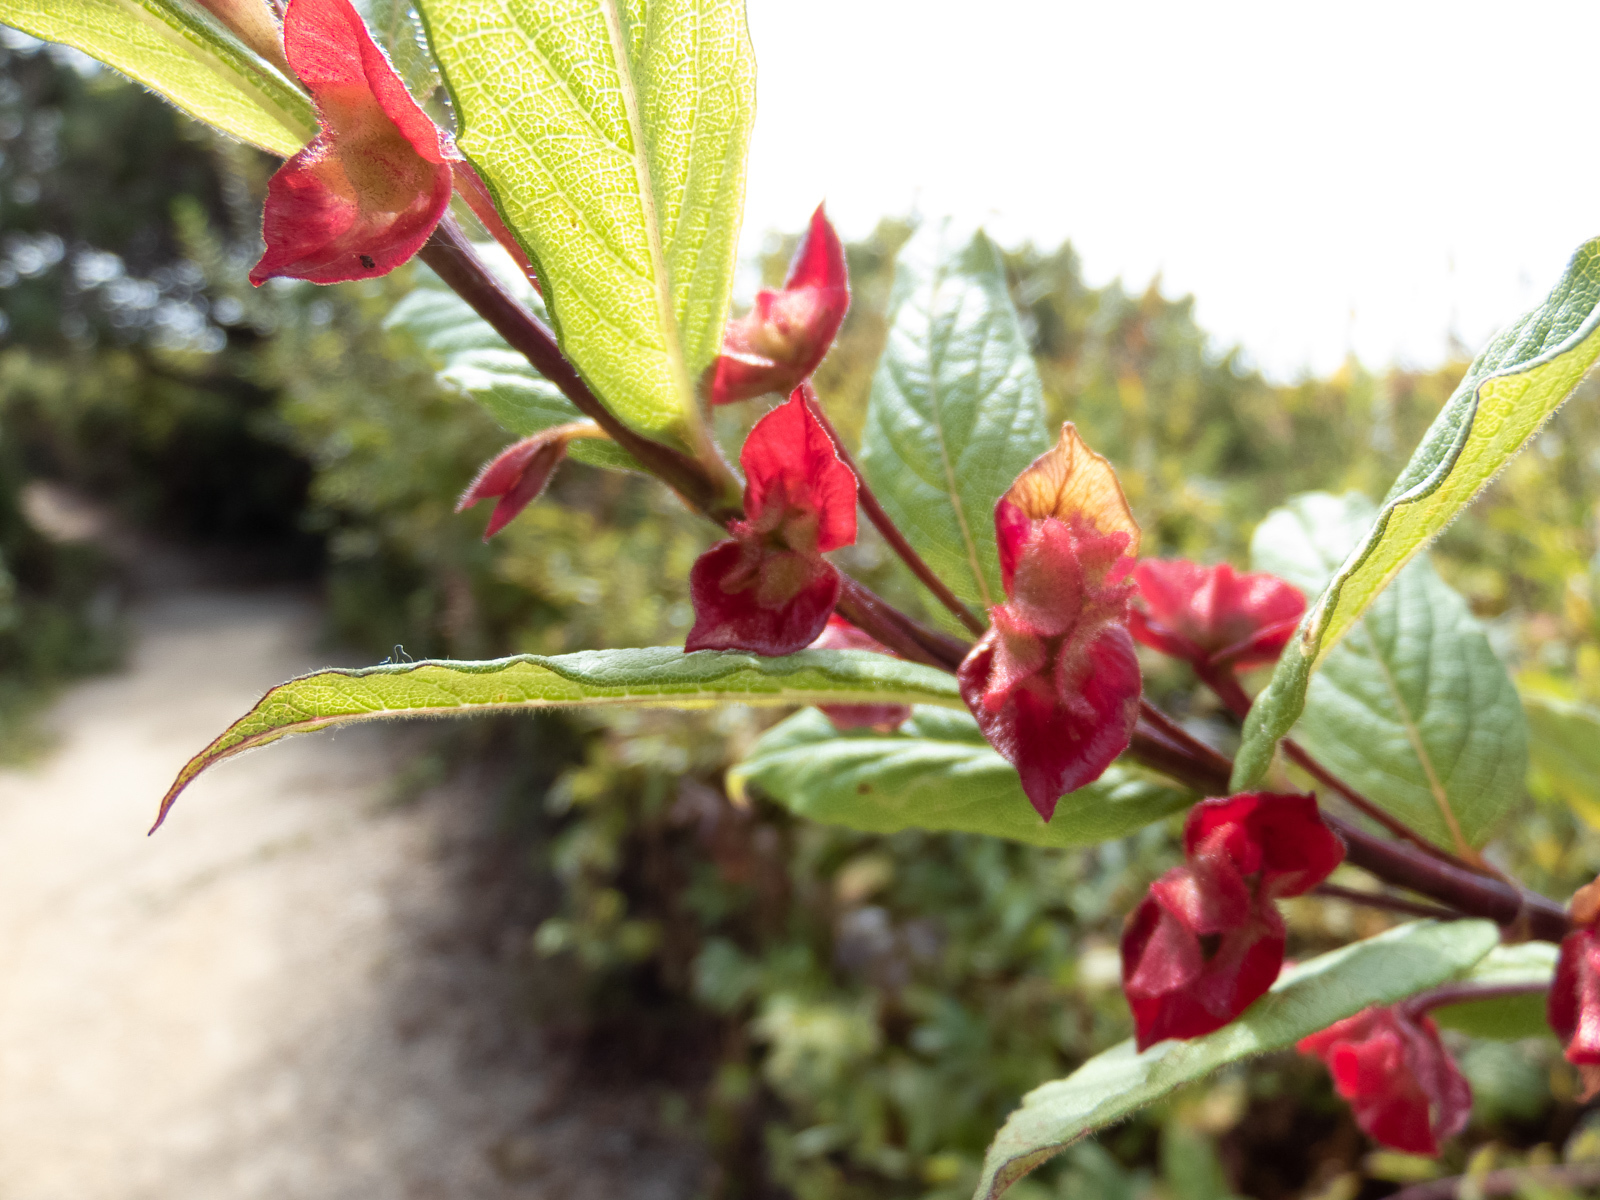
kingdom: Plantae
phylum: Tracheophyta
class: Magnoliopsida
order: Dipsacales
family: Caprifoliaceae
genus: Lonicera
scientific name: Lonicera involucrata
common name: Californian honeysuckle
